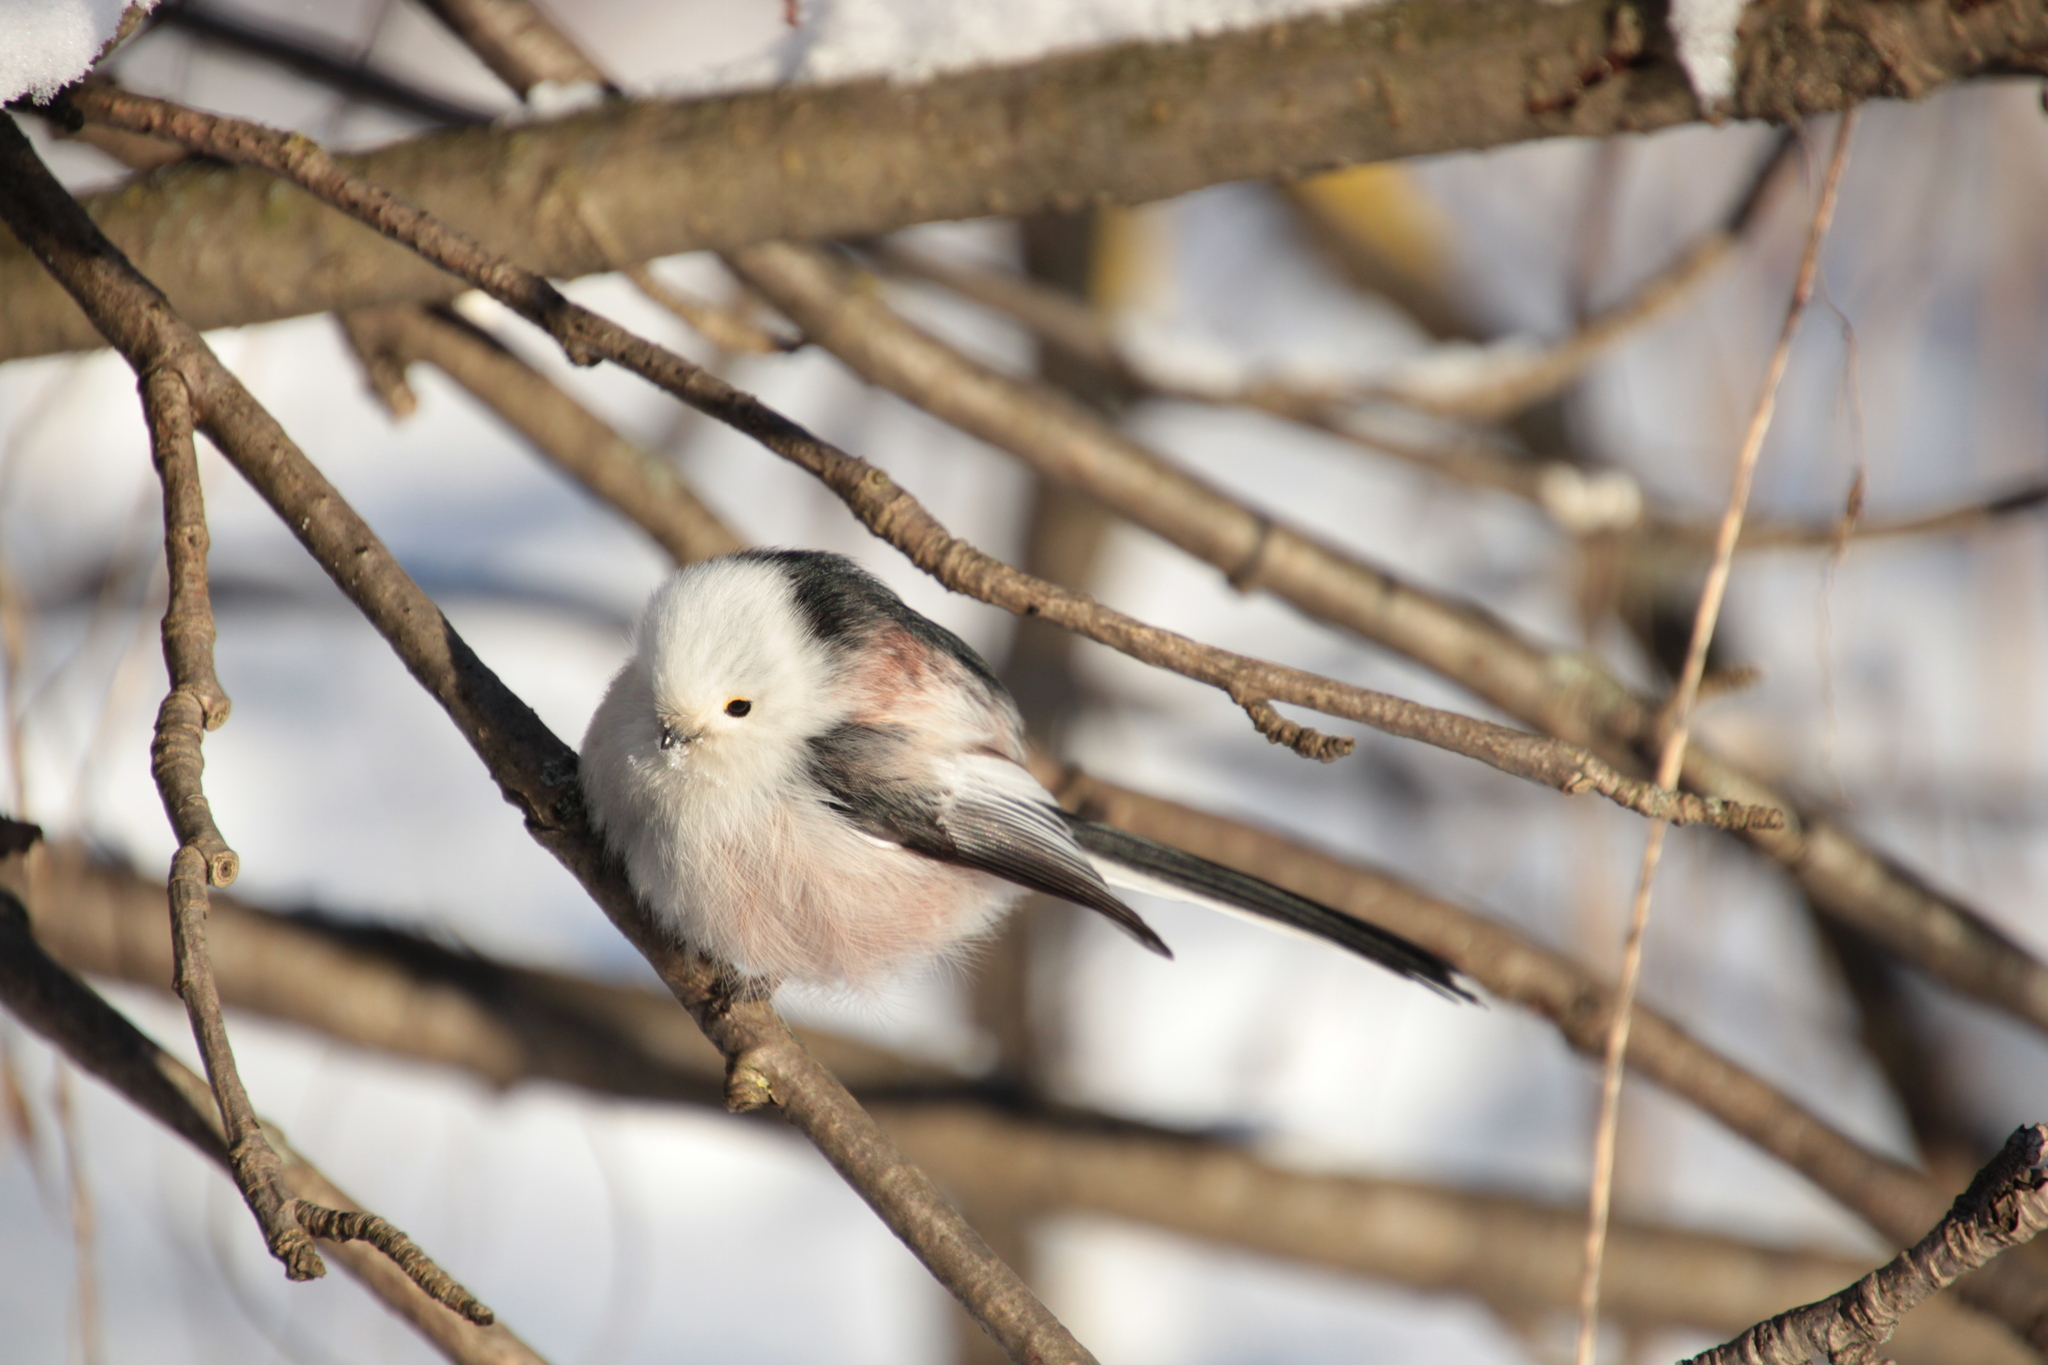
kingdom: Animalia
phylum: Chordata
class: Aves
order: Passeriformes
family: Aegithalidae
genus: Aegithalos
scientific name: Aegithalos caudatus
